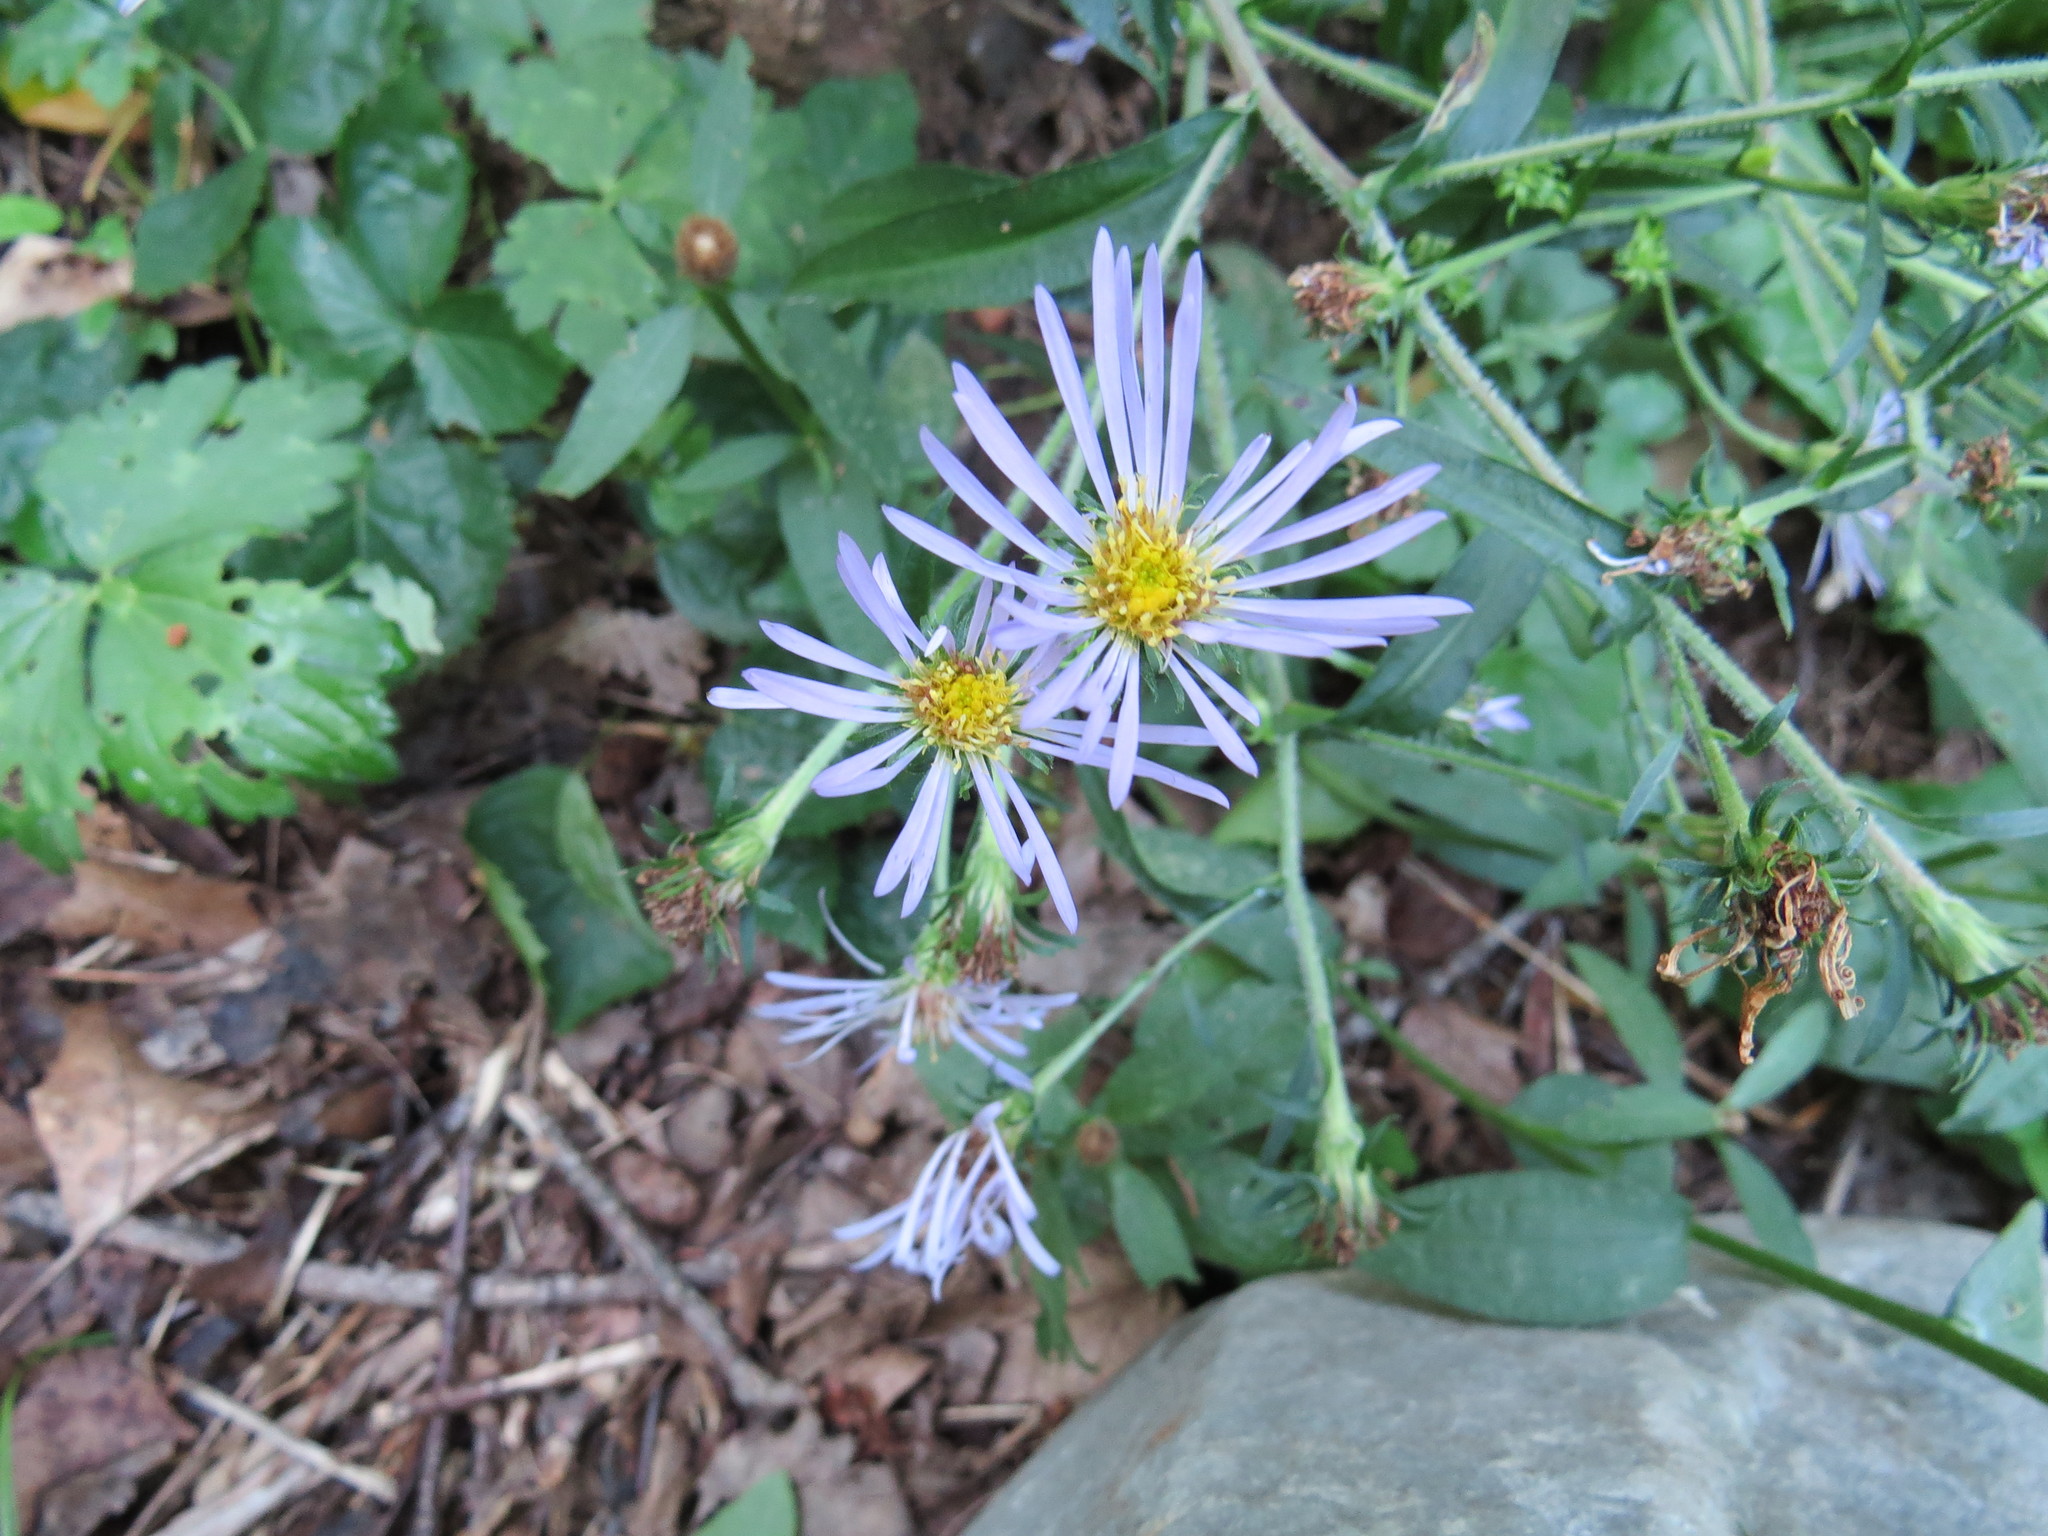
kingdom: Plantae
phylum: Tracheophyta
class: Magnoliopsida
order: Asterales
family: Asteraceae
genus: Symphyotrichum
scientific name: Symphyotrichum puniceum
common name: Bog aster
